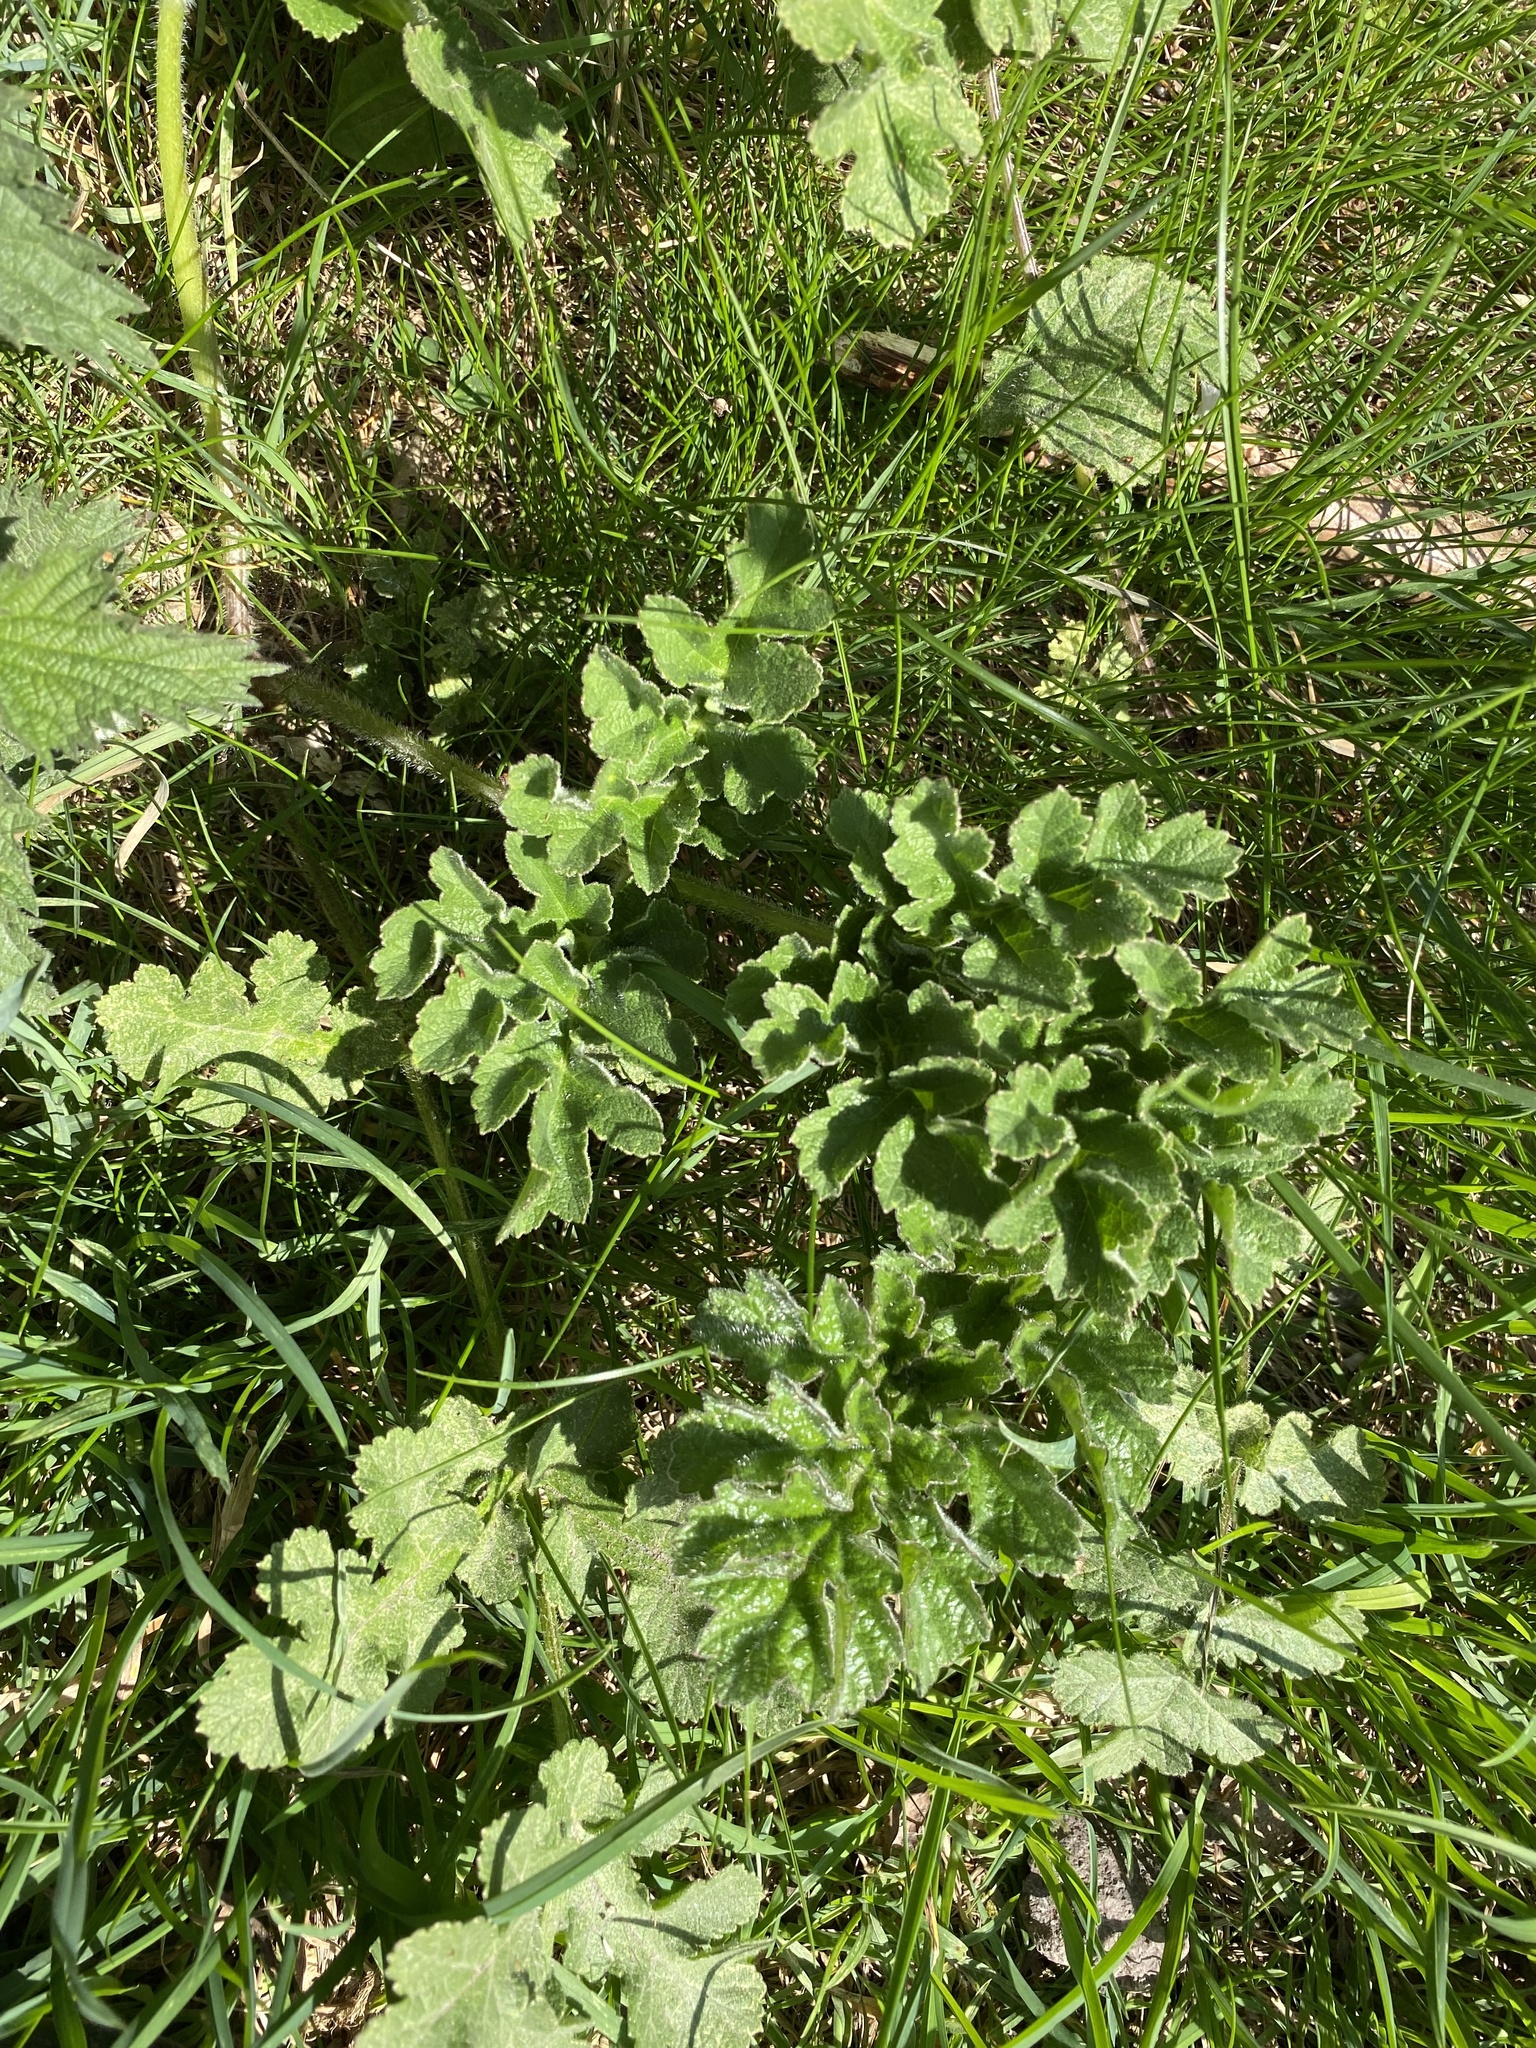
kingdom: Plantae
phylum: Tracheophyta
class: Magnoliopsida
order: Apiales
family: Apiaceae
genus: Heracleum
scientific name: Heracleum sphondylium
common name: Hogweed
